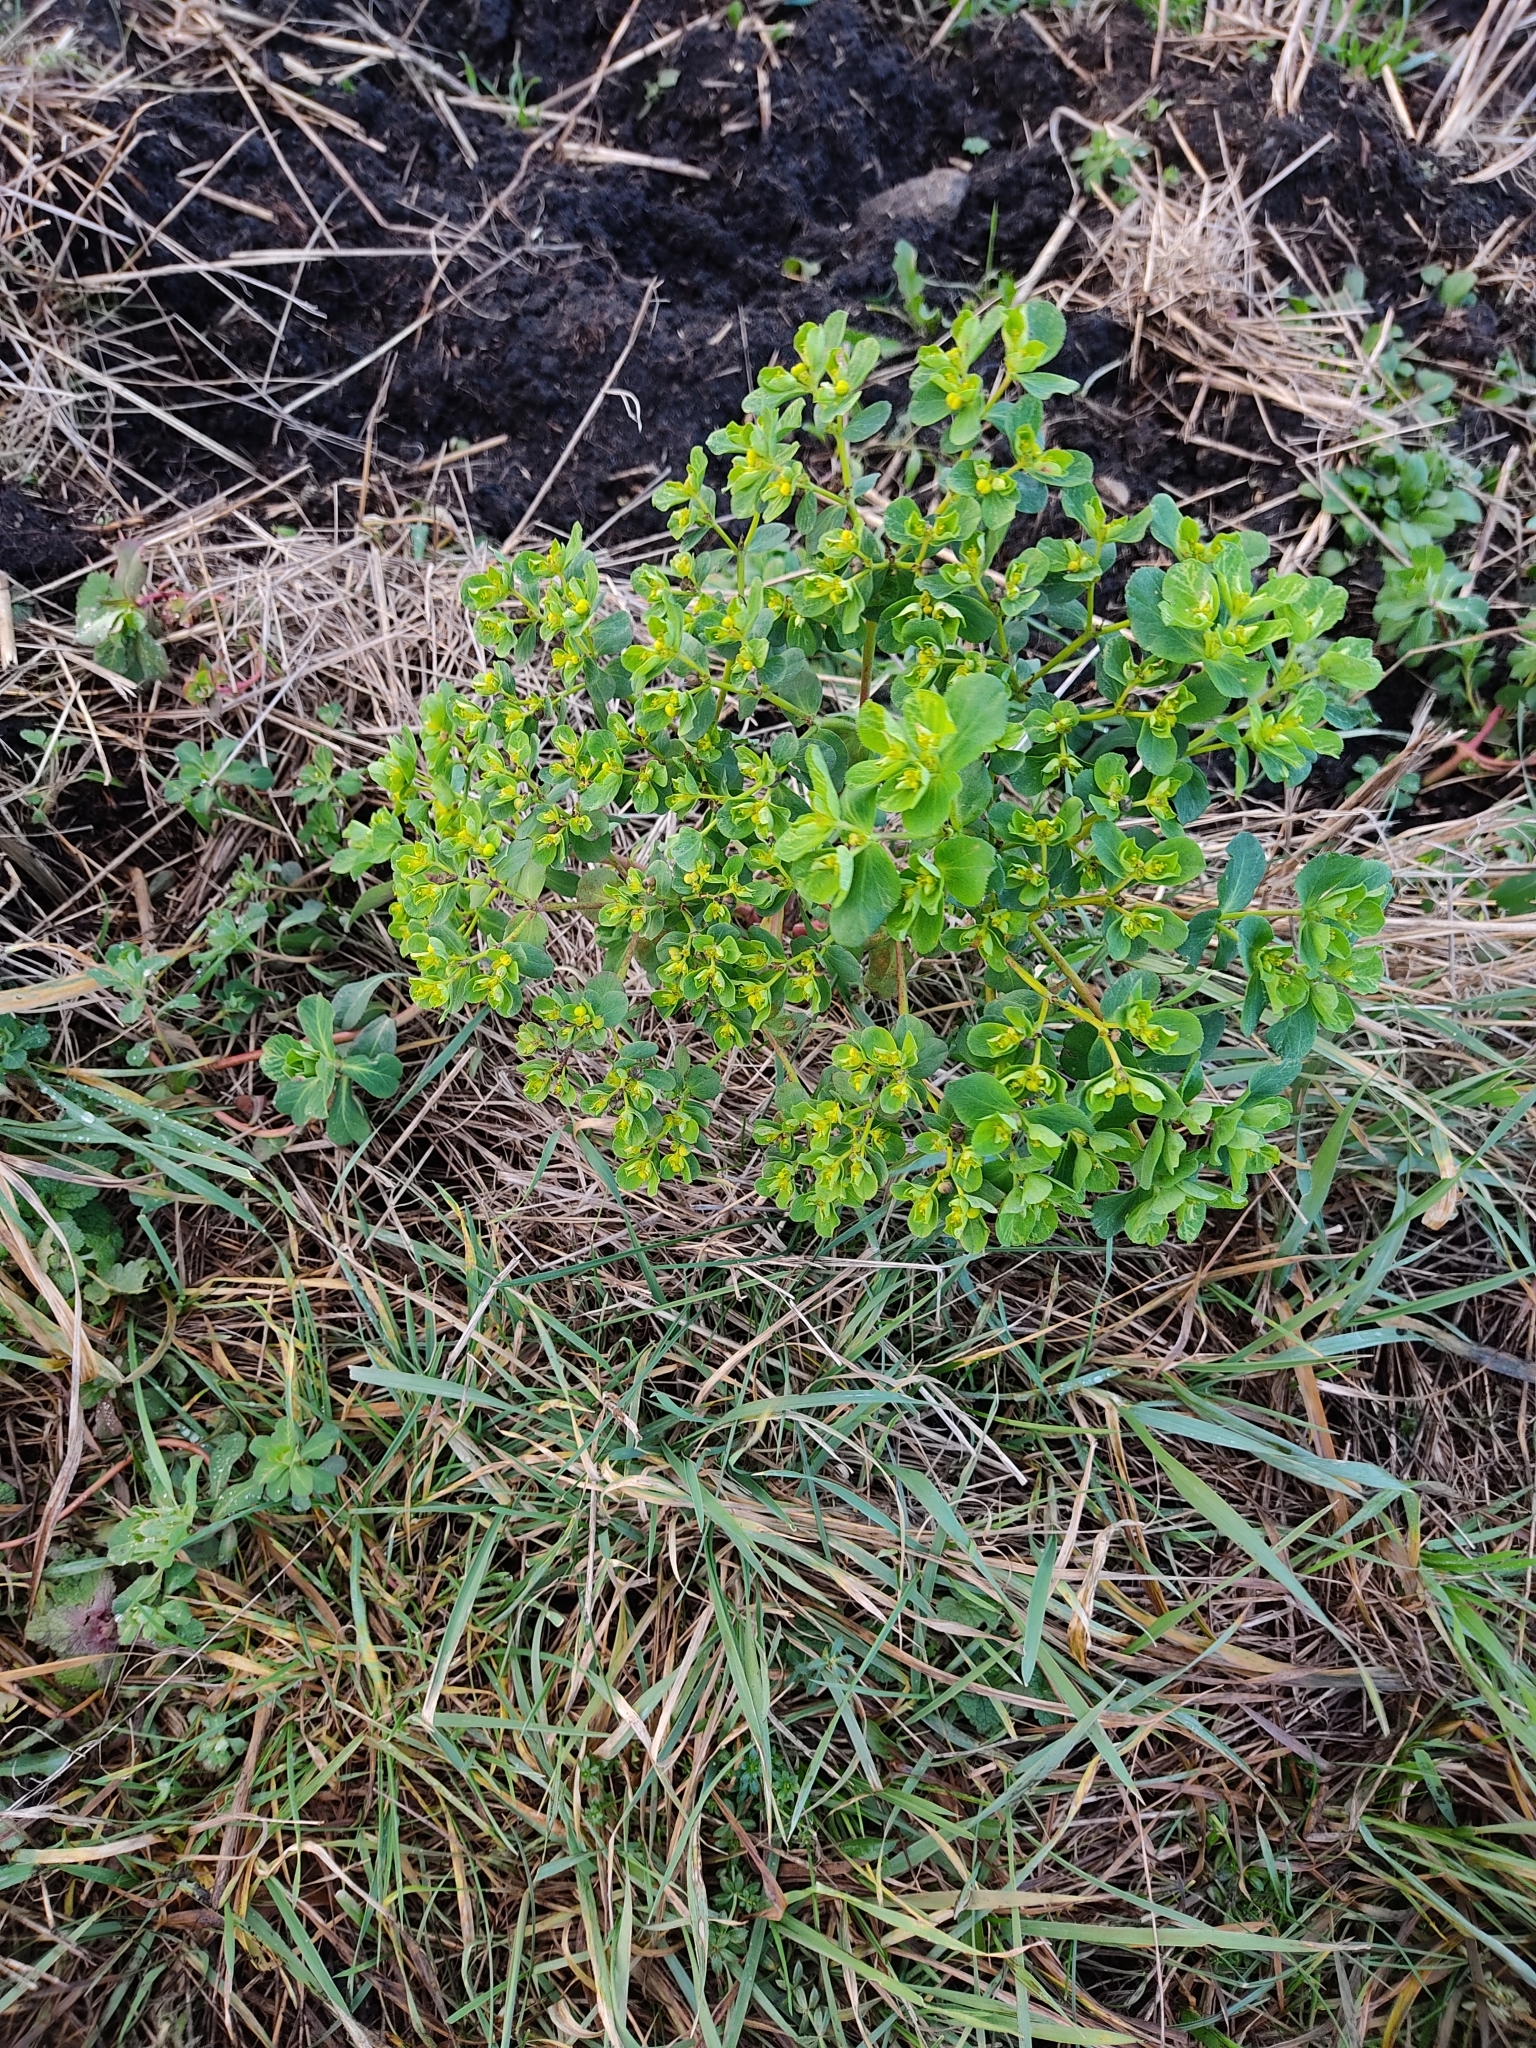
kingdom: Plantae
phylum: Tracheophyta
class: Magnoliopsida
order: Malpighiales
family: Euphorbiaceae
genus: Euphorbia
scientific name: Euphorbia helioscopia
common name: Sun spurge
